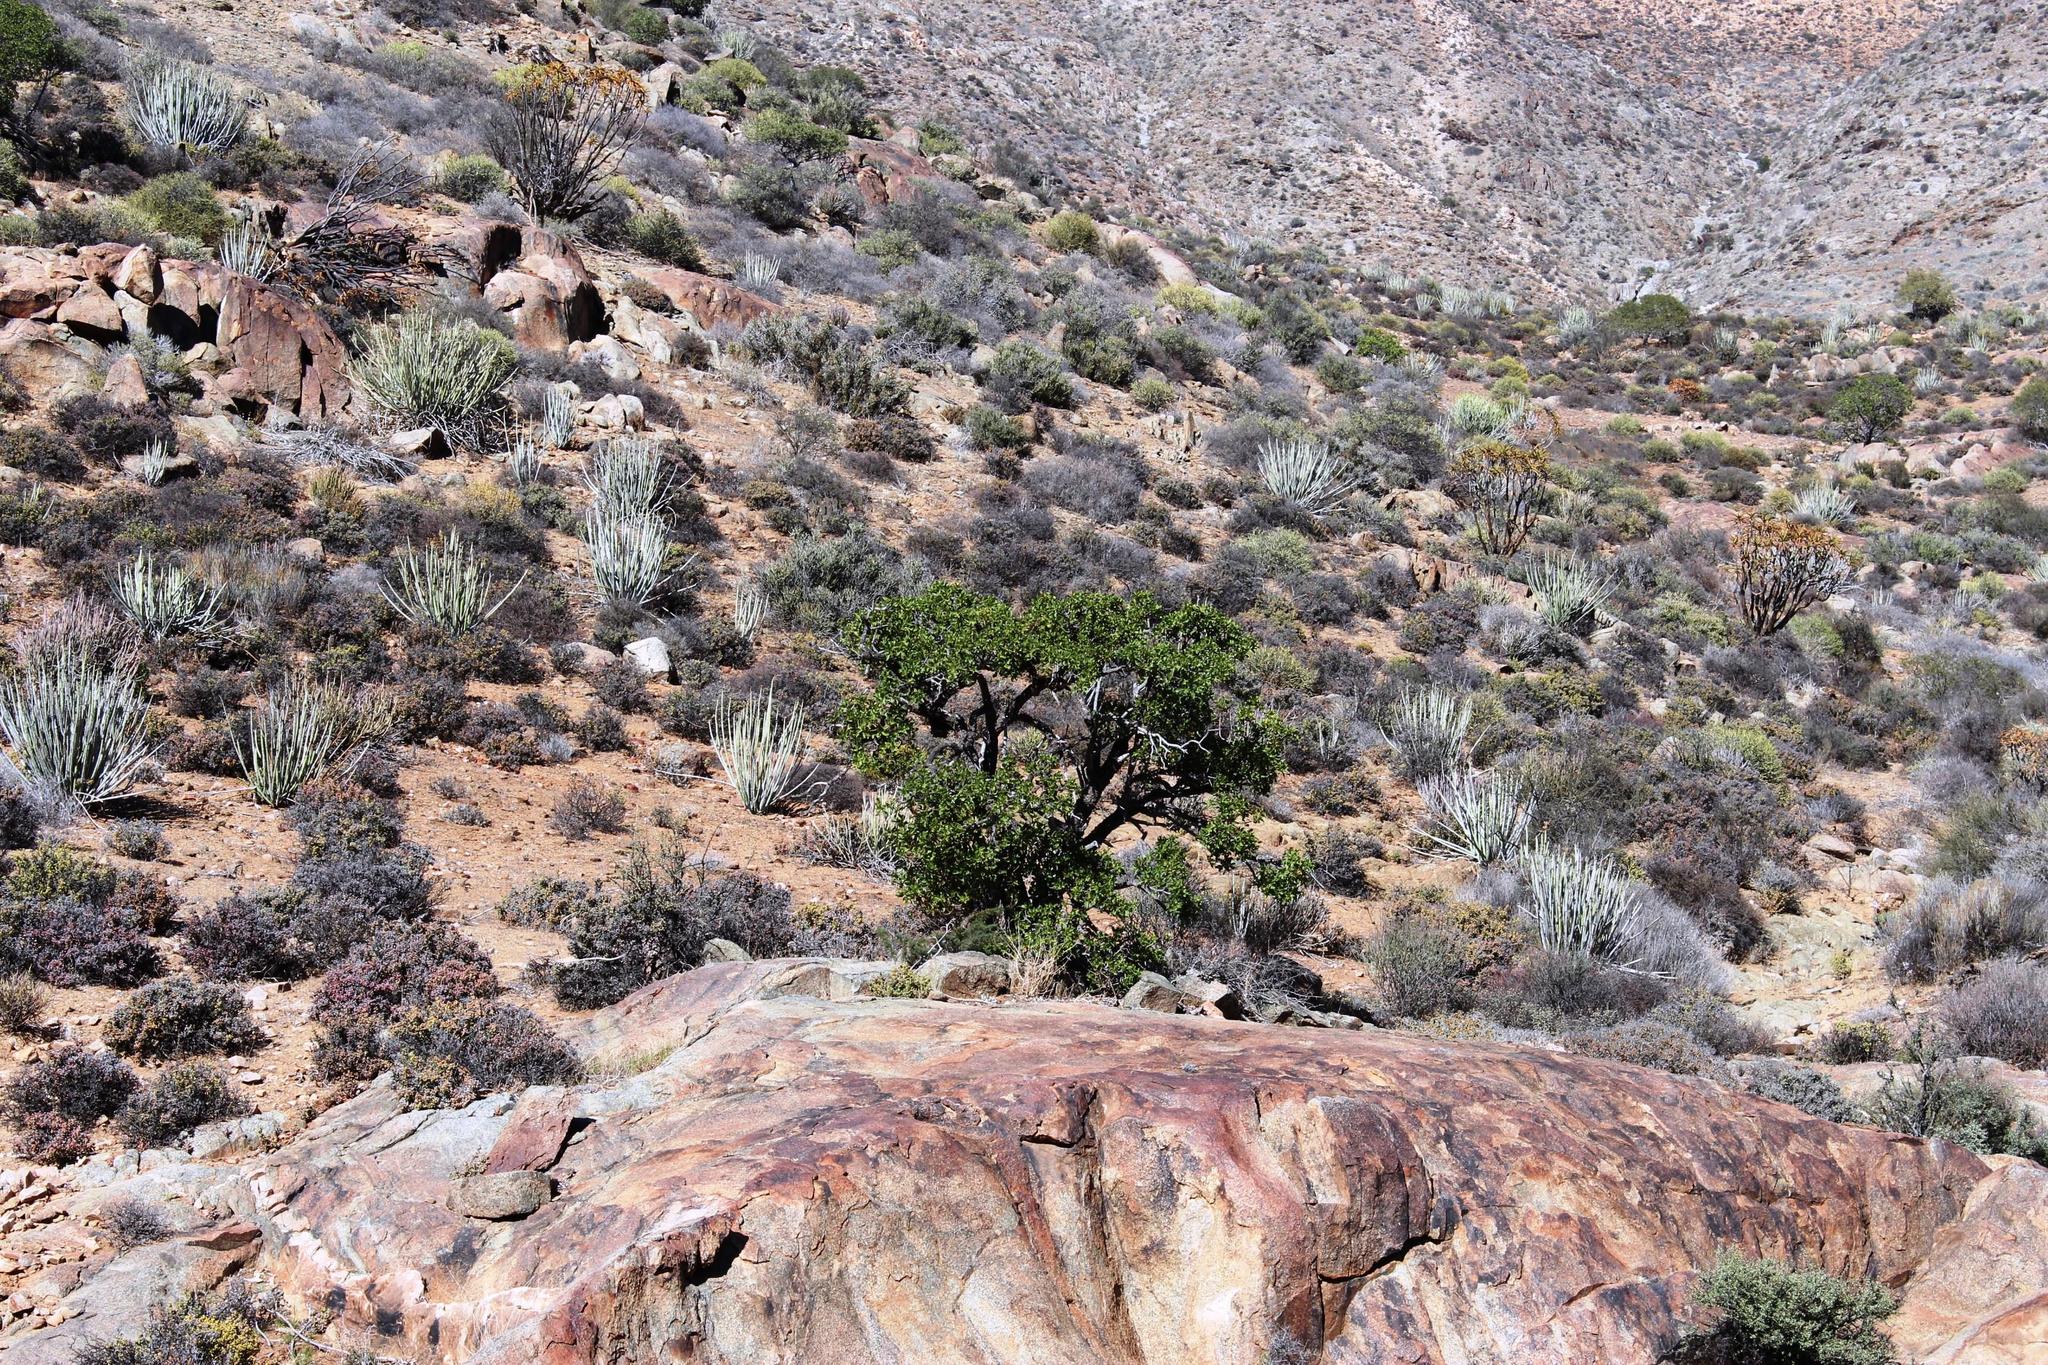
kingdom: Plantae
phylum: Tracheophyta
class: Magnoliopsida
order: Sapindales
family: Anacardiaceae
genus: Ozoroa
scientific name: Ozoroa concolor
